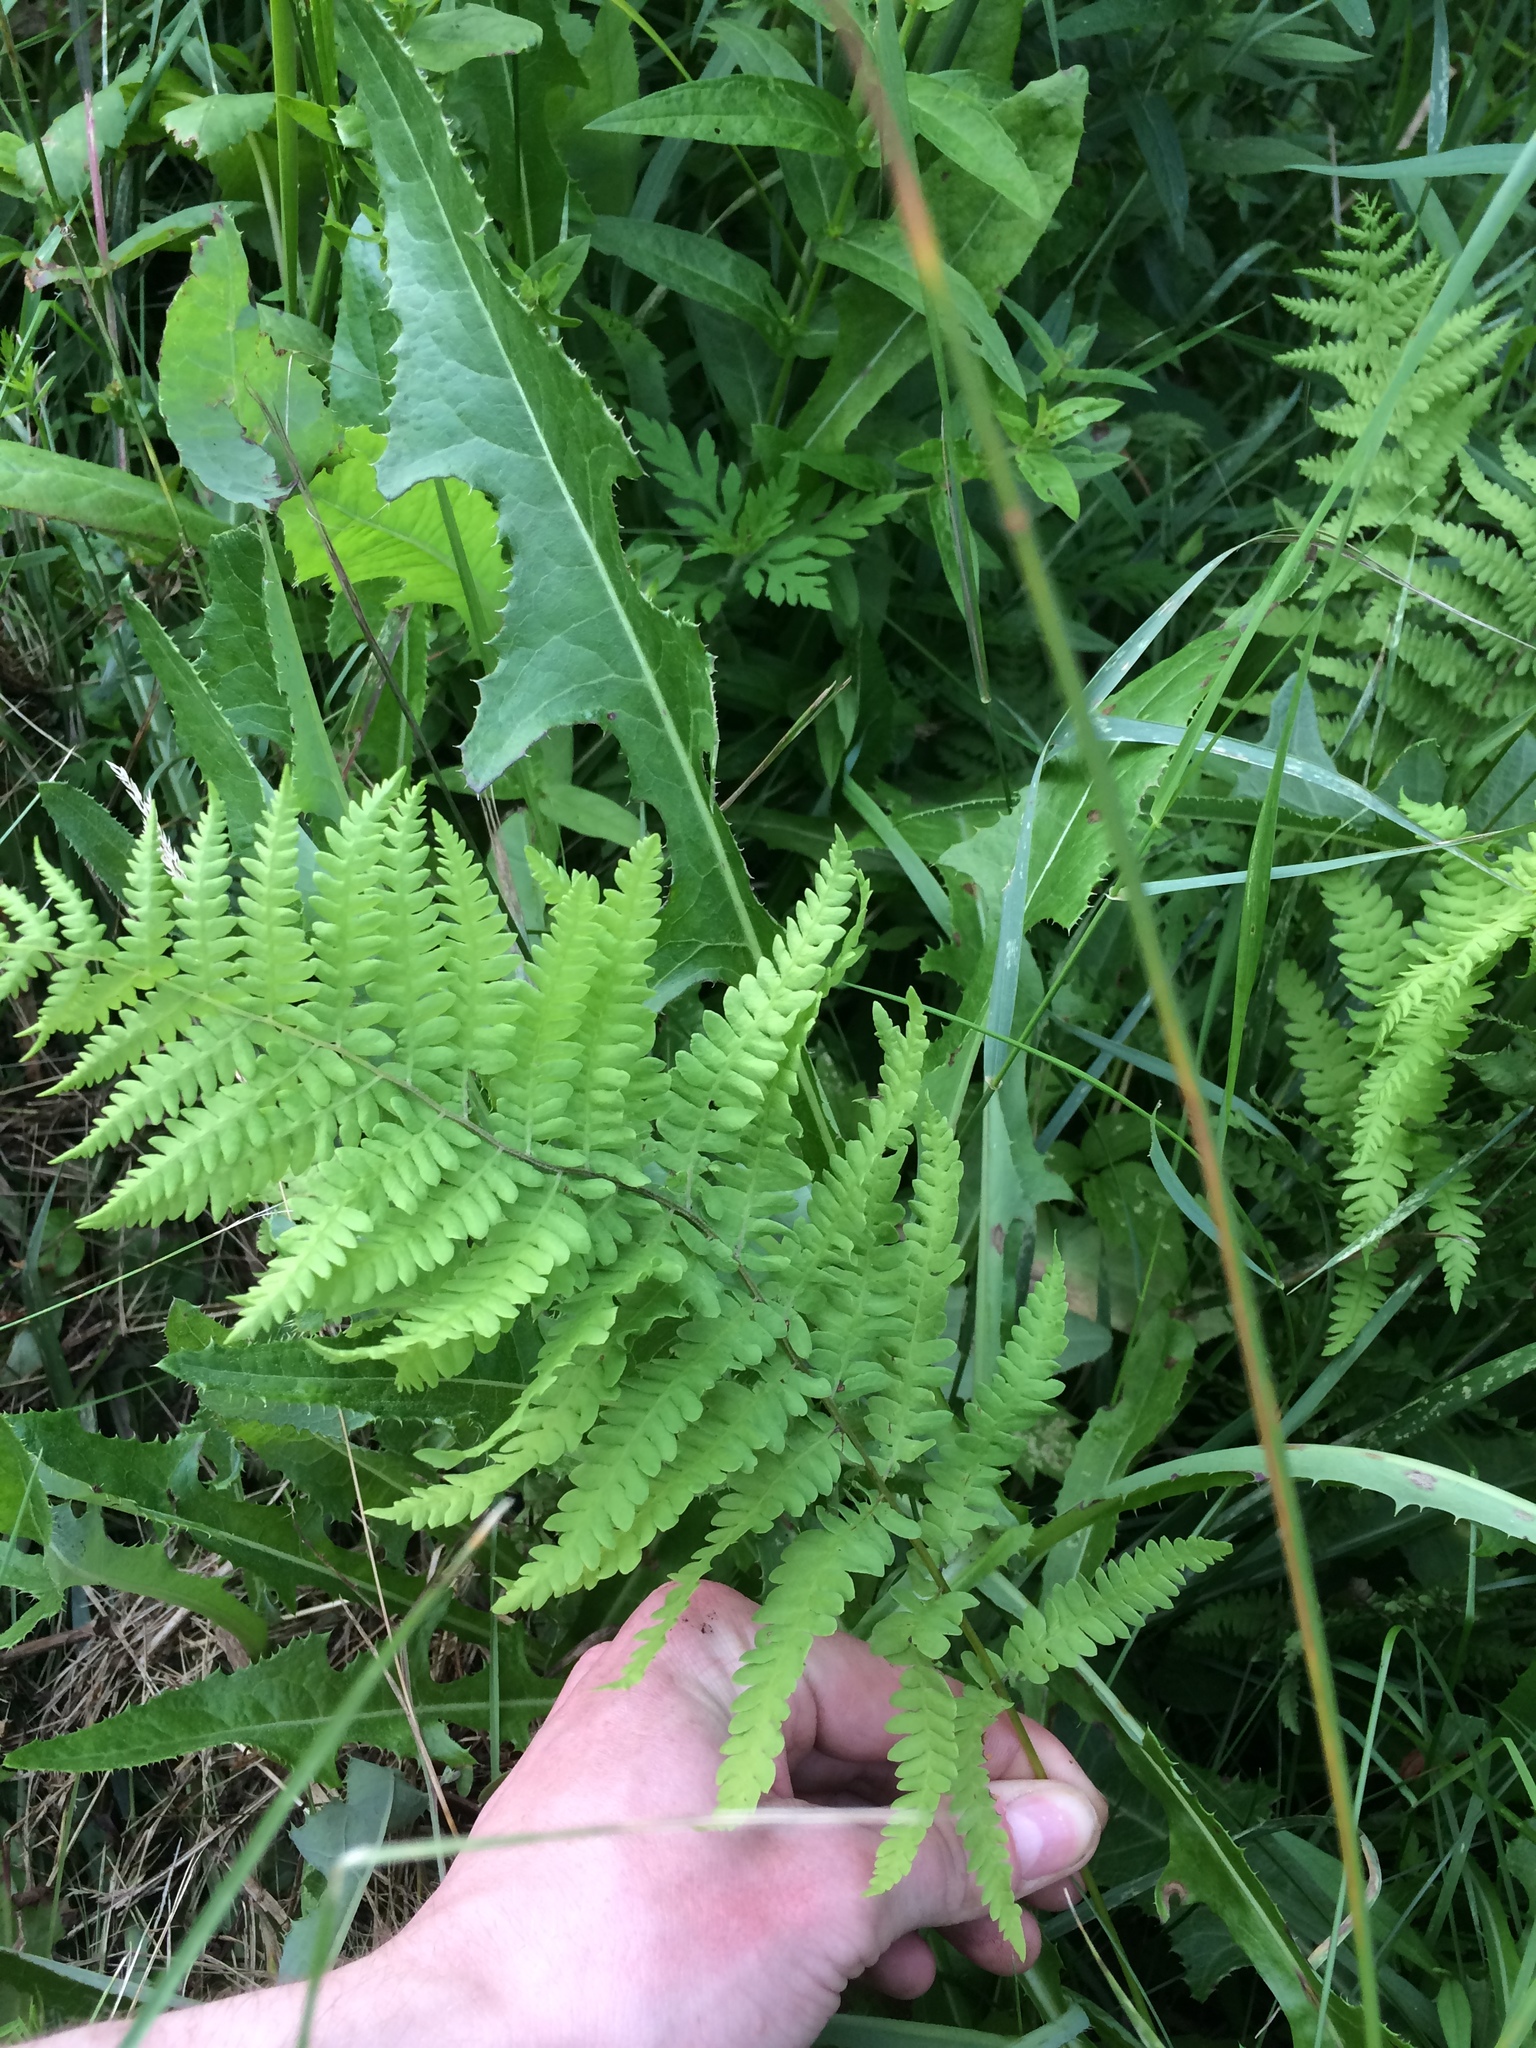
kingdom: Plantae
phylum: Tracheophyta
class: Polypodiopsida
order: Polypodiales
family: Thelypteridaceae
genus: Thelypteris
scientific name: Thelypteris palustris
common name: Marsh fern
